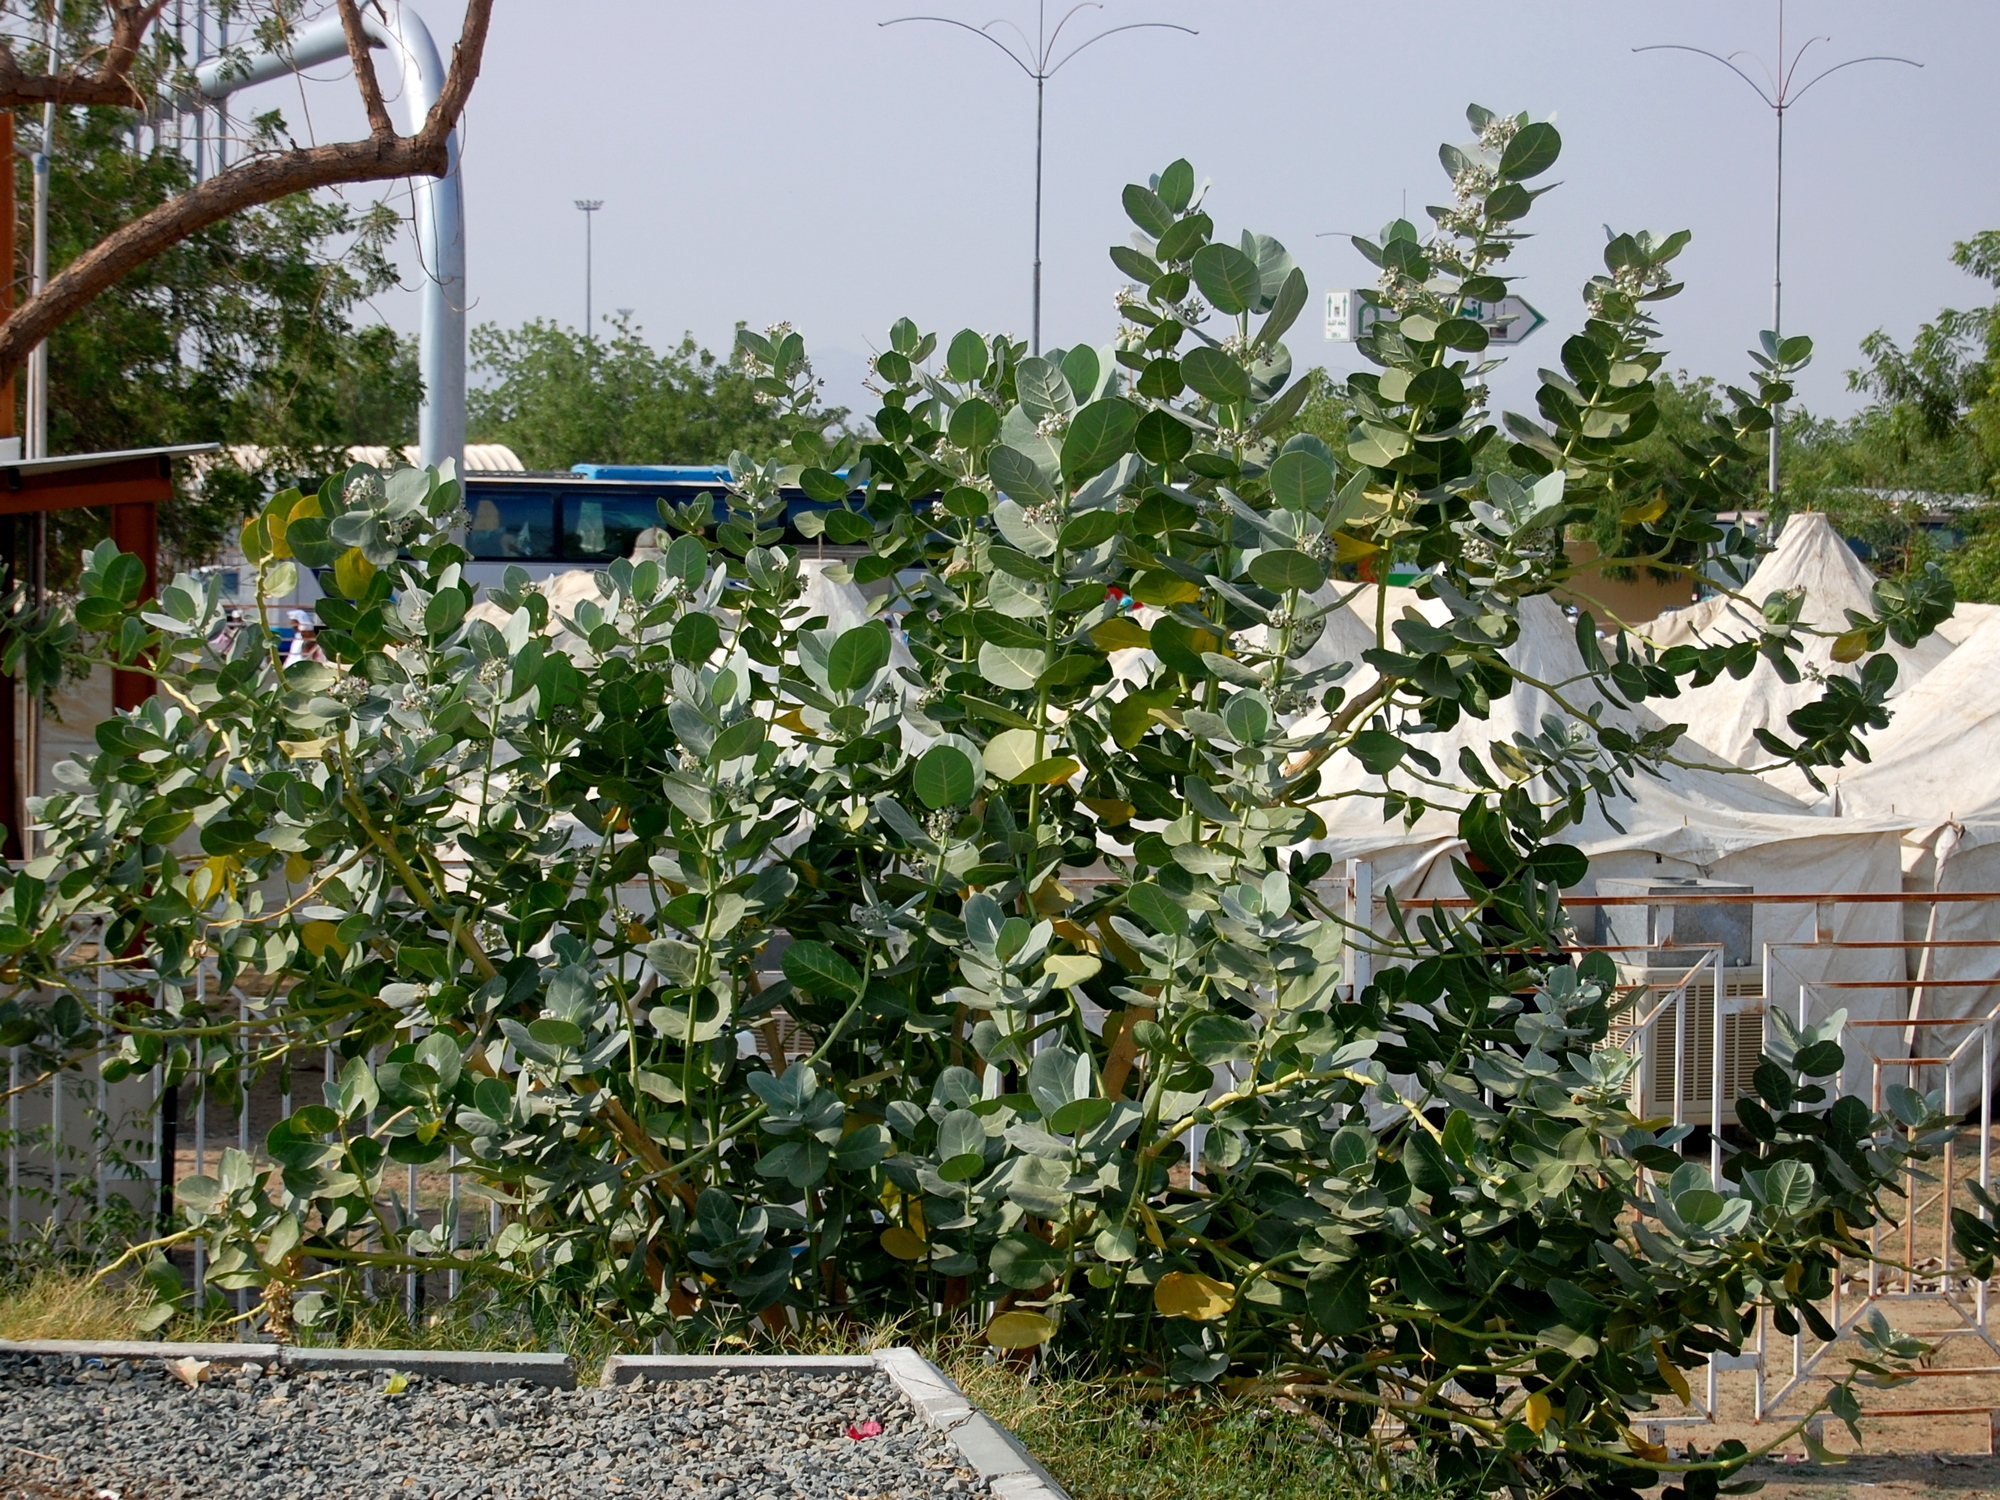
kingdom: Plantae
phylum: Tracheophyta
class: Magnoliopsida
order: Gentianales
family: Apocynaceae
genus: Calotropis
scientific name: Calotropis procera
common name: Roostertree
